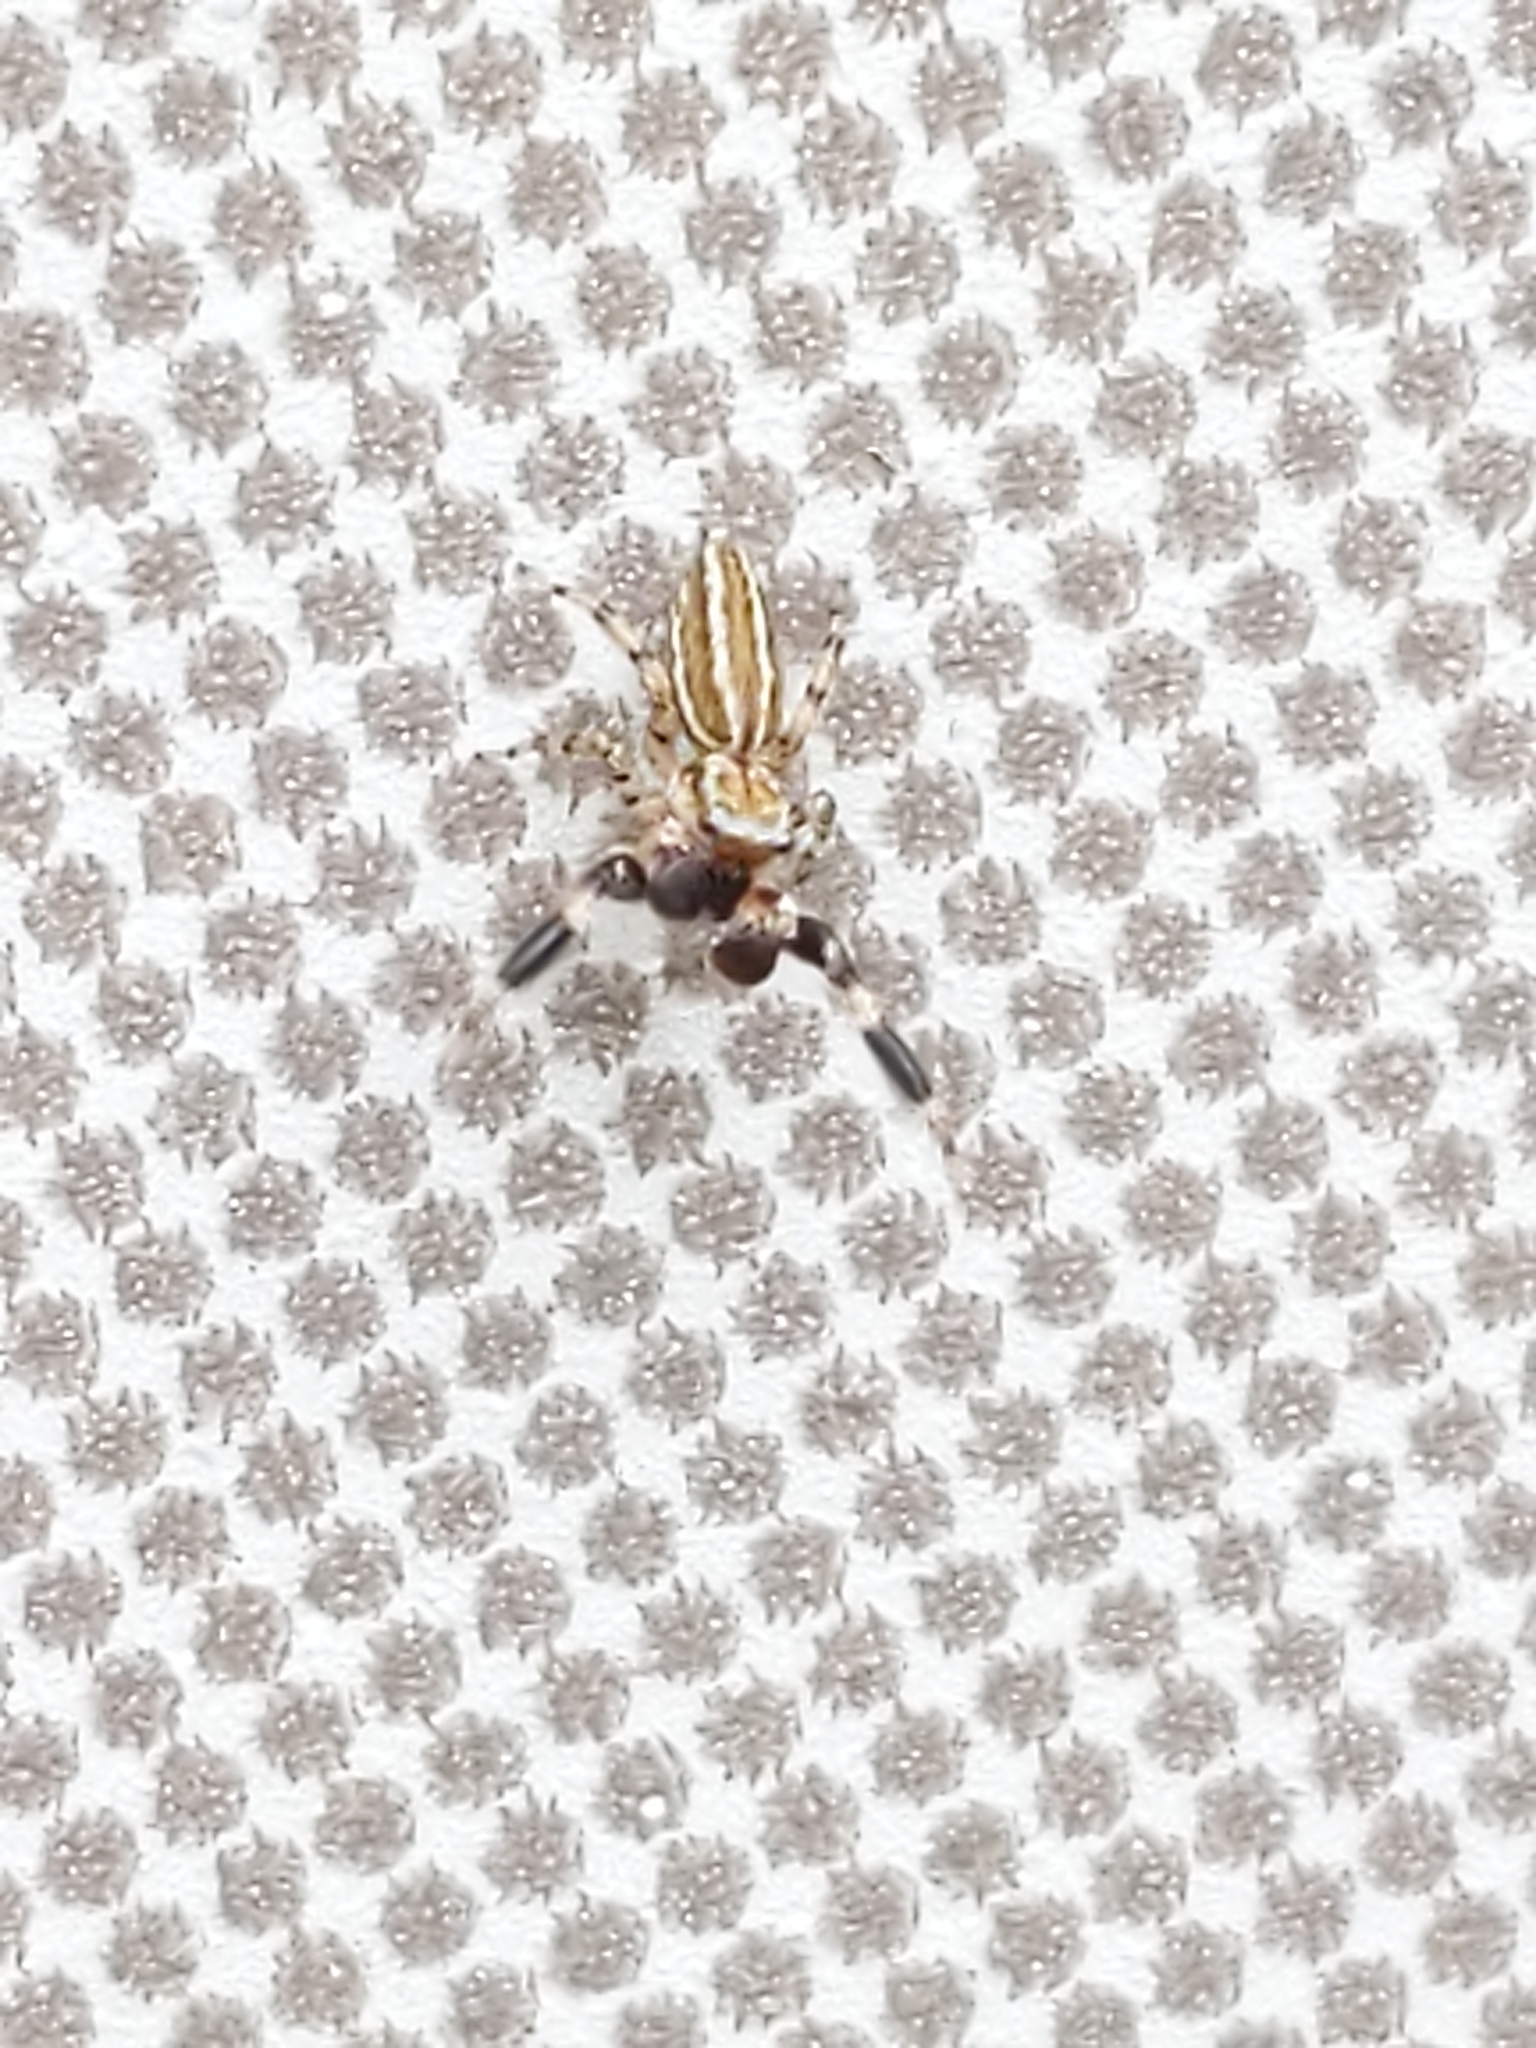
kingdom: Animalia
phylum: Arthropoda
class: Arachnida
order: Araneae
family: Salticidae
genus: Marpissa
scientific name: Marpissa lineata
